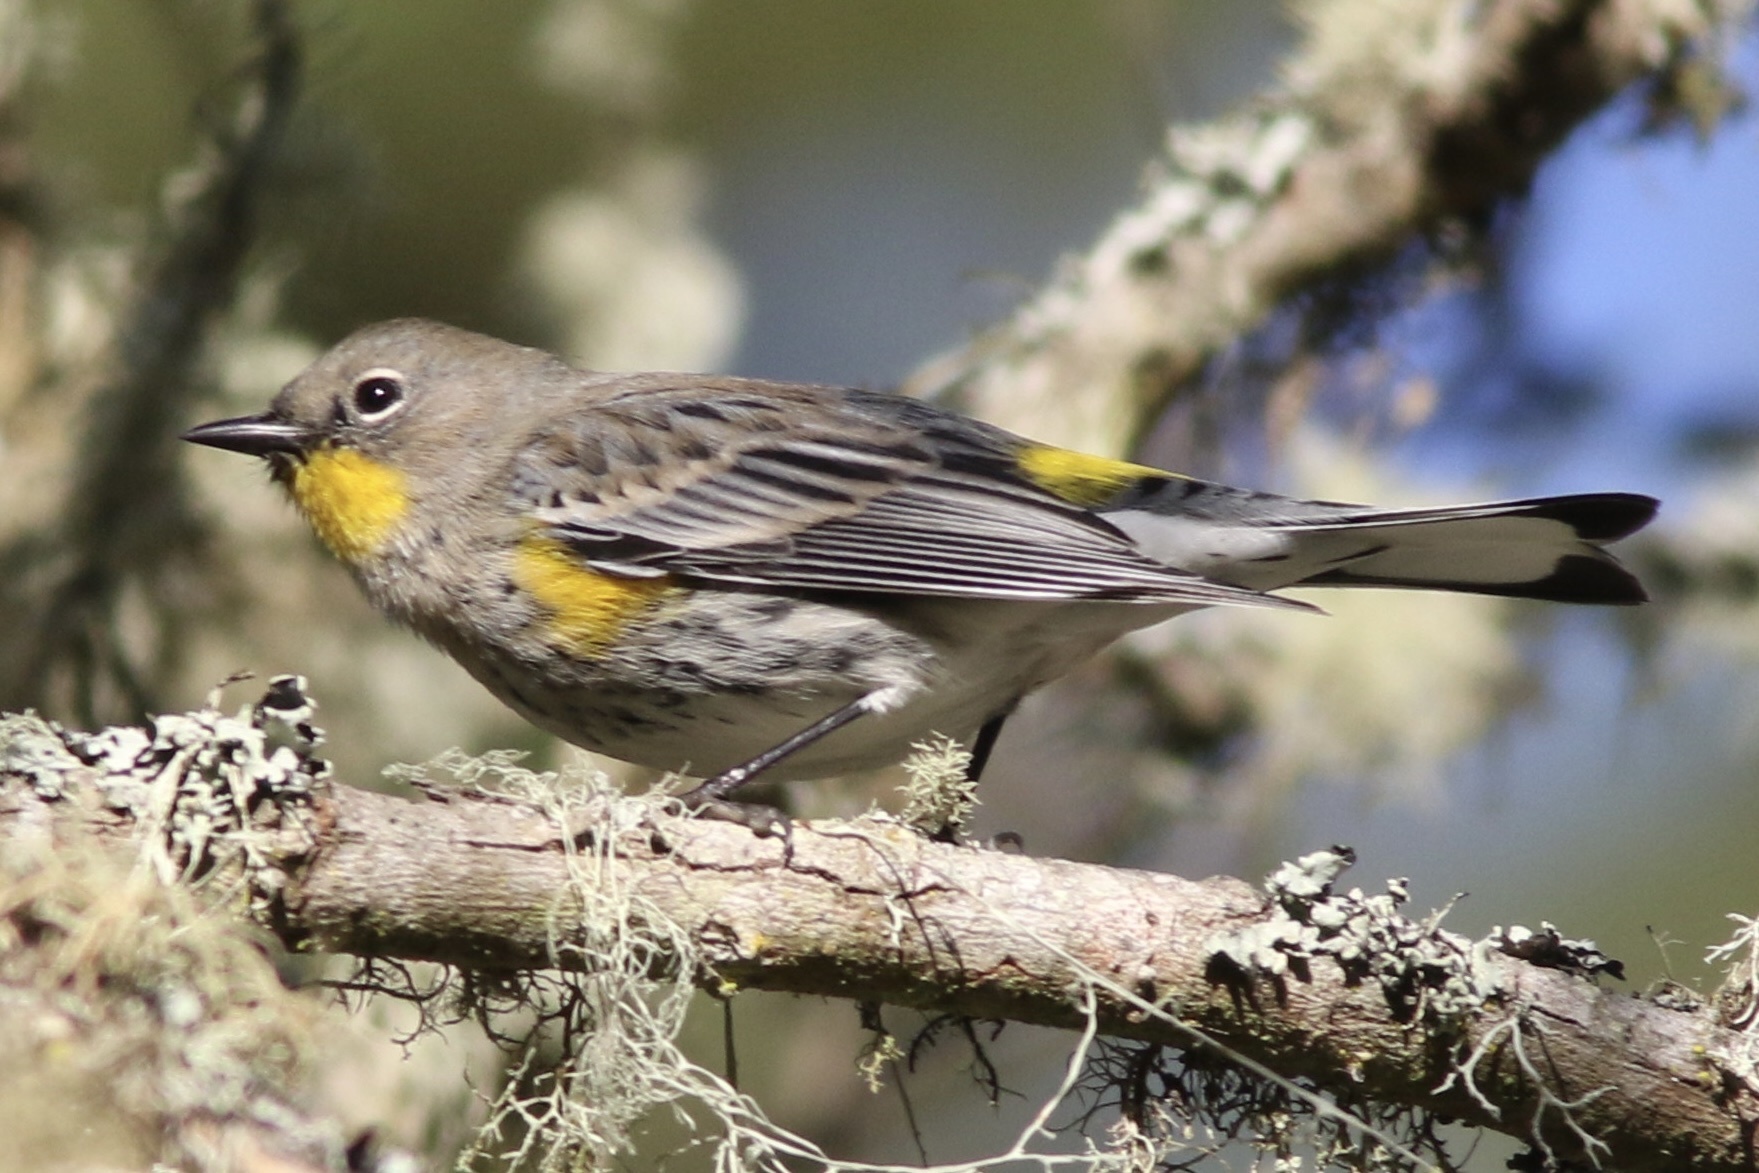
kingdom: Animalia
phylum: Chordata
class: Aves
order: Passeriformes
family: Parulidae
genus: Setophaga
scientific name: Setophaga coronata
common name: Myrtle warbler
